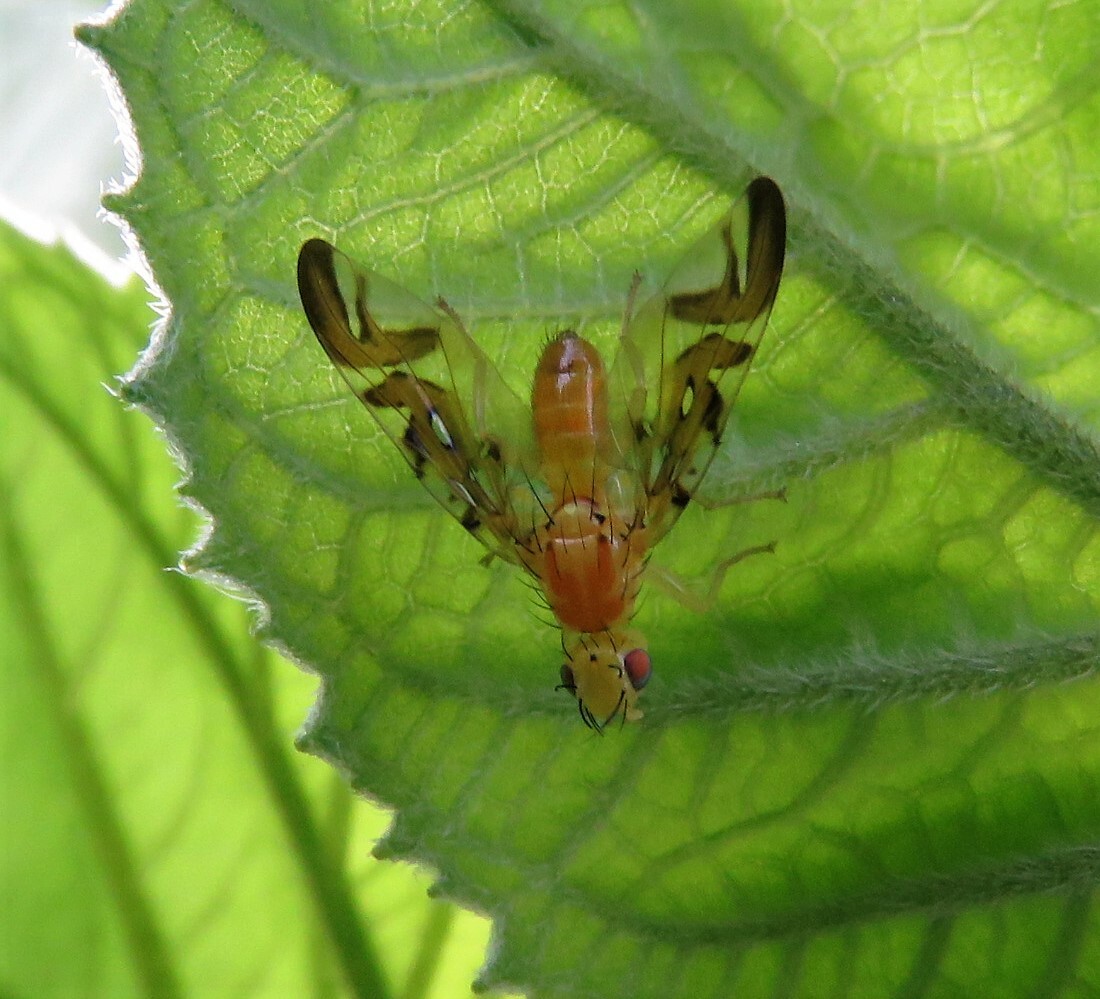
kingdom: Animalia
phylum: Arthropoda
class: Insecta
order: Diptera
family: Tephritidae
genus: Strauzia
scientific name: Strauzia longipennis
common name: Sunflower maggot
